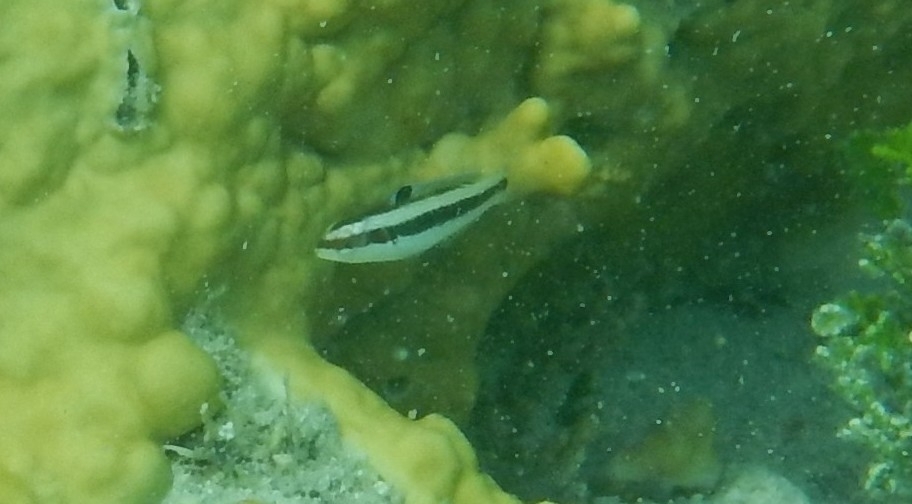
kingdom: Animalia
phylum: Chordata
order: Perciformes
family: Labridae
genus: Thalassoma
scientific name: Thalassoma bifasciatum
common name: Bluehead wrasse
